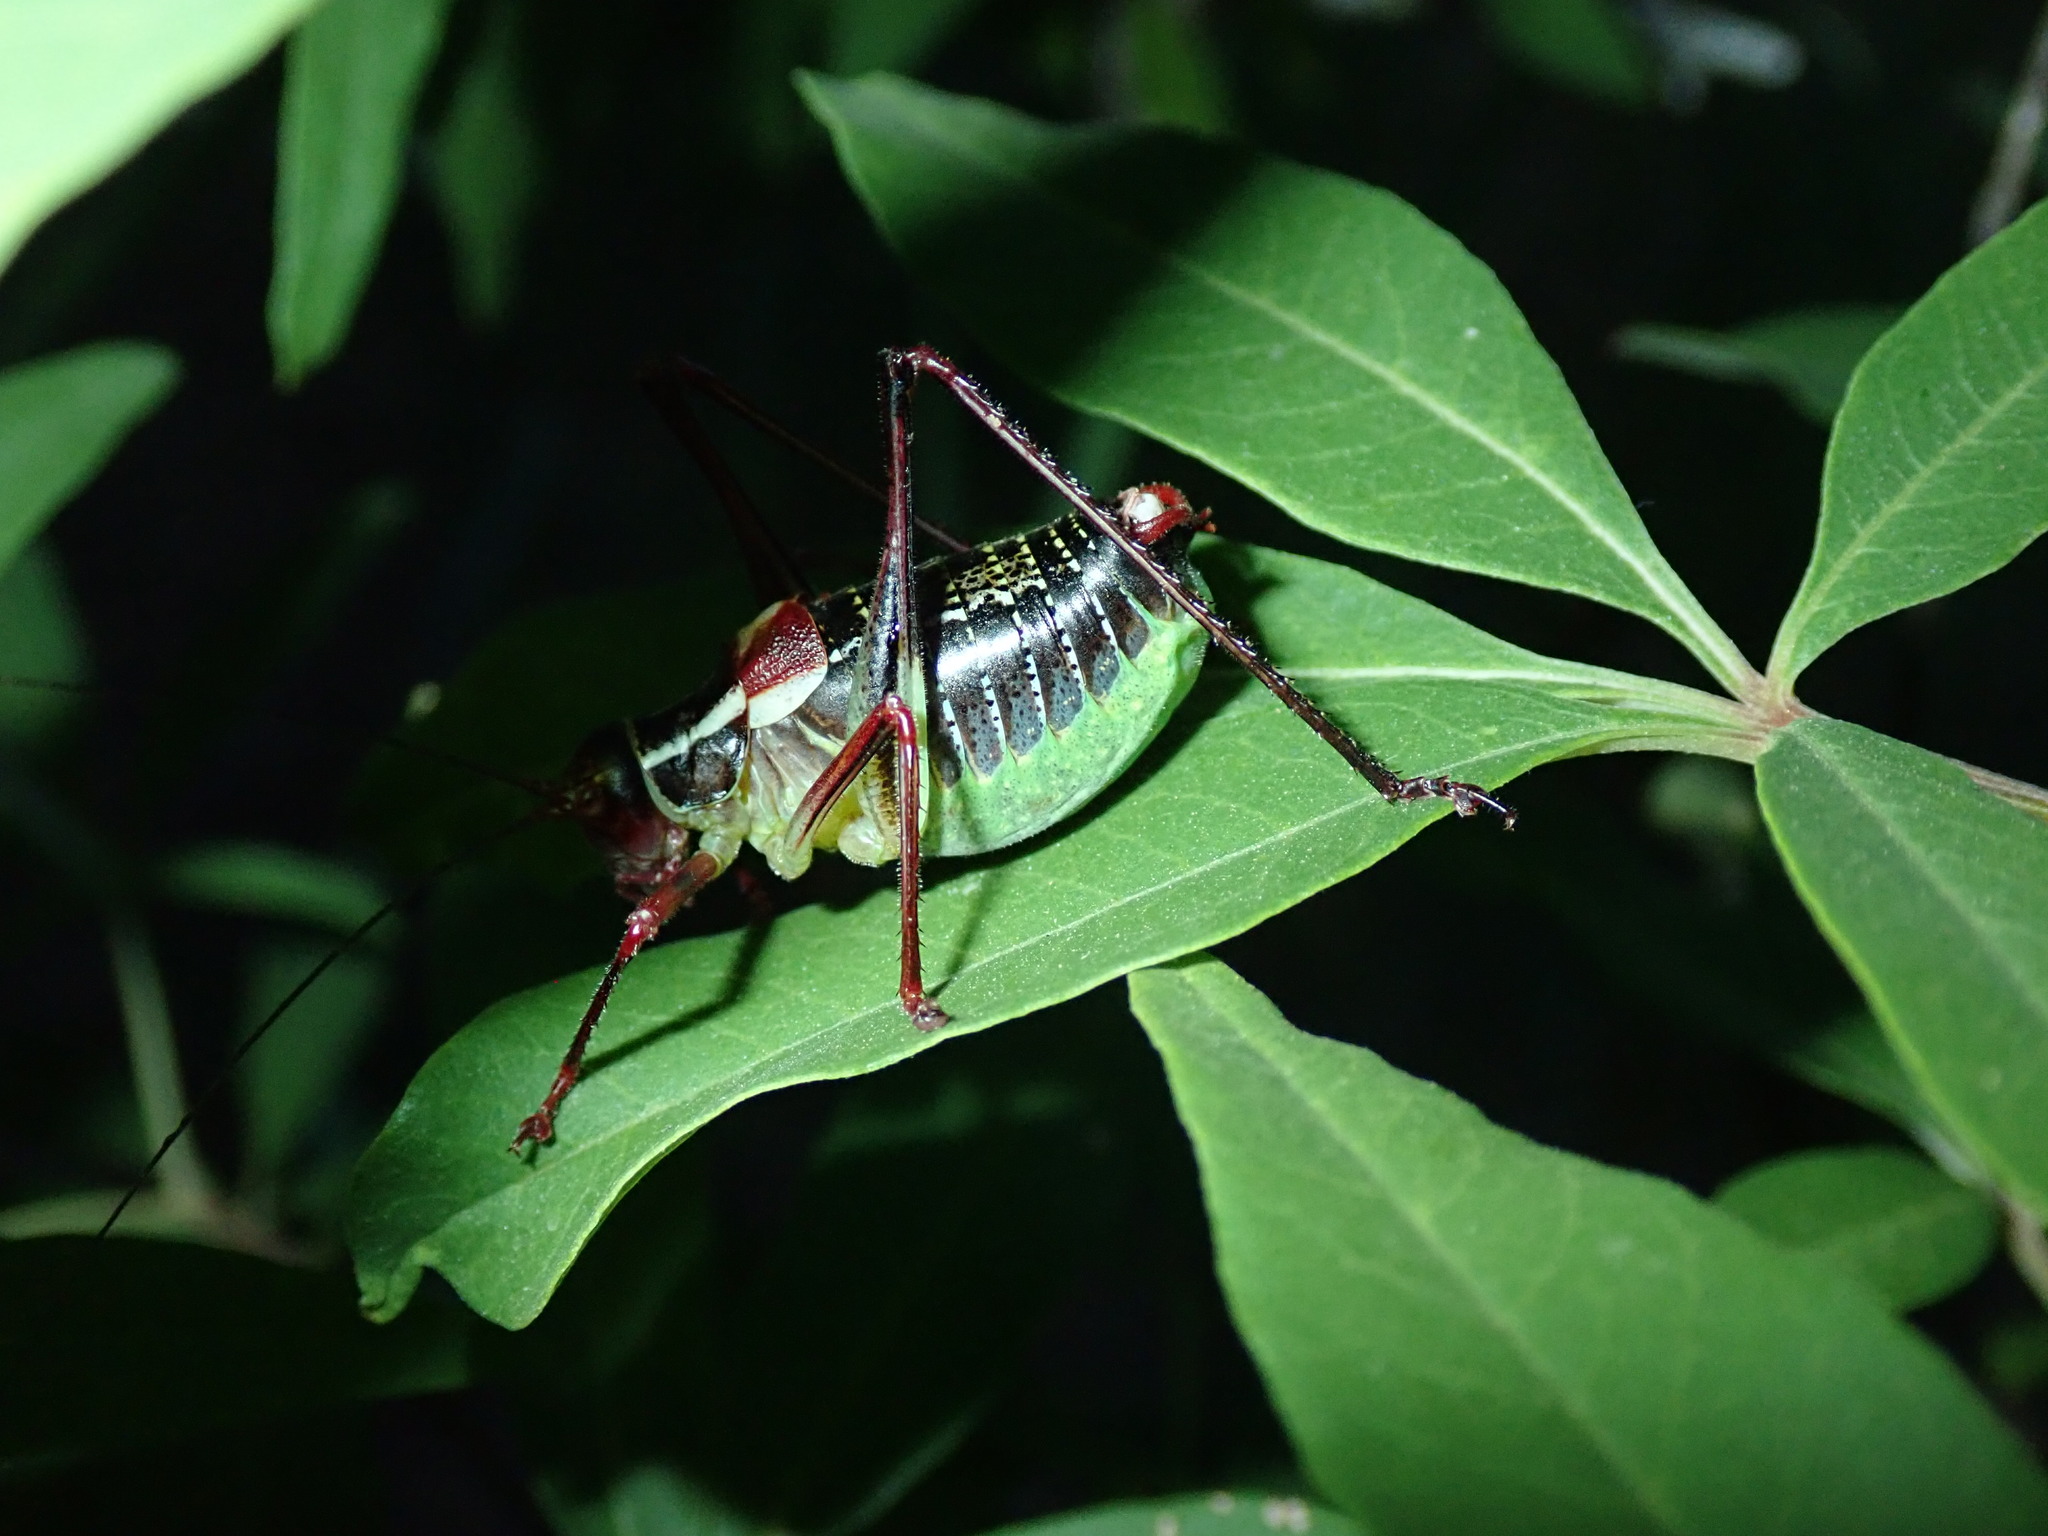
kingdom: Animalia
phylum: Arthropoda
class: Insecta
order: Orthoptera
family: Tettigoniidae
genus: Barbitistes
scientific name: Barbitistes ocskayi
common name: Black saw bush-cricket
